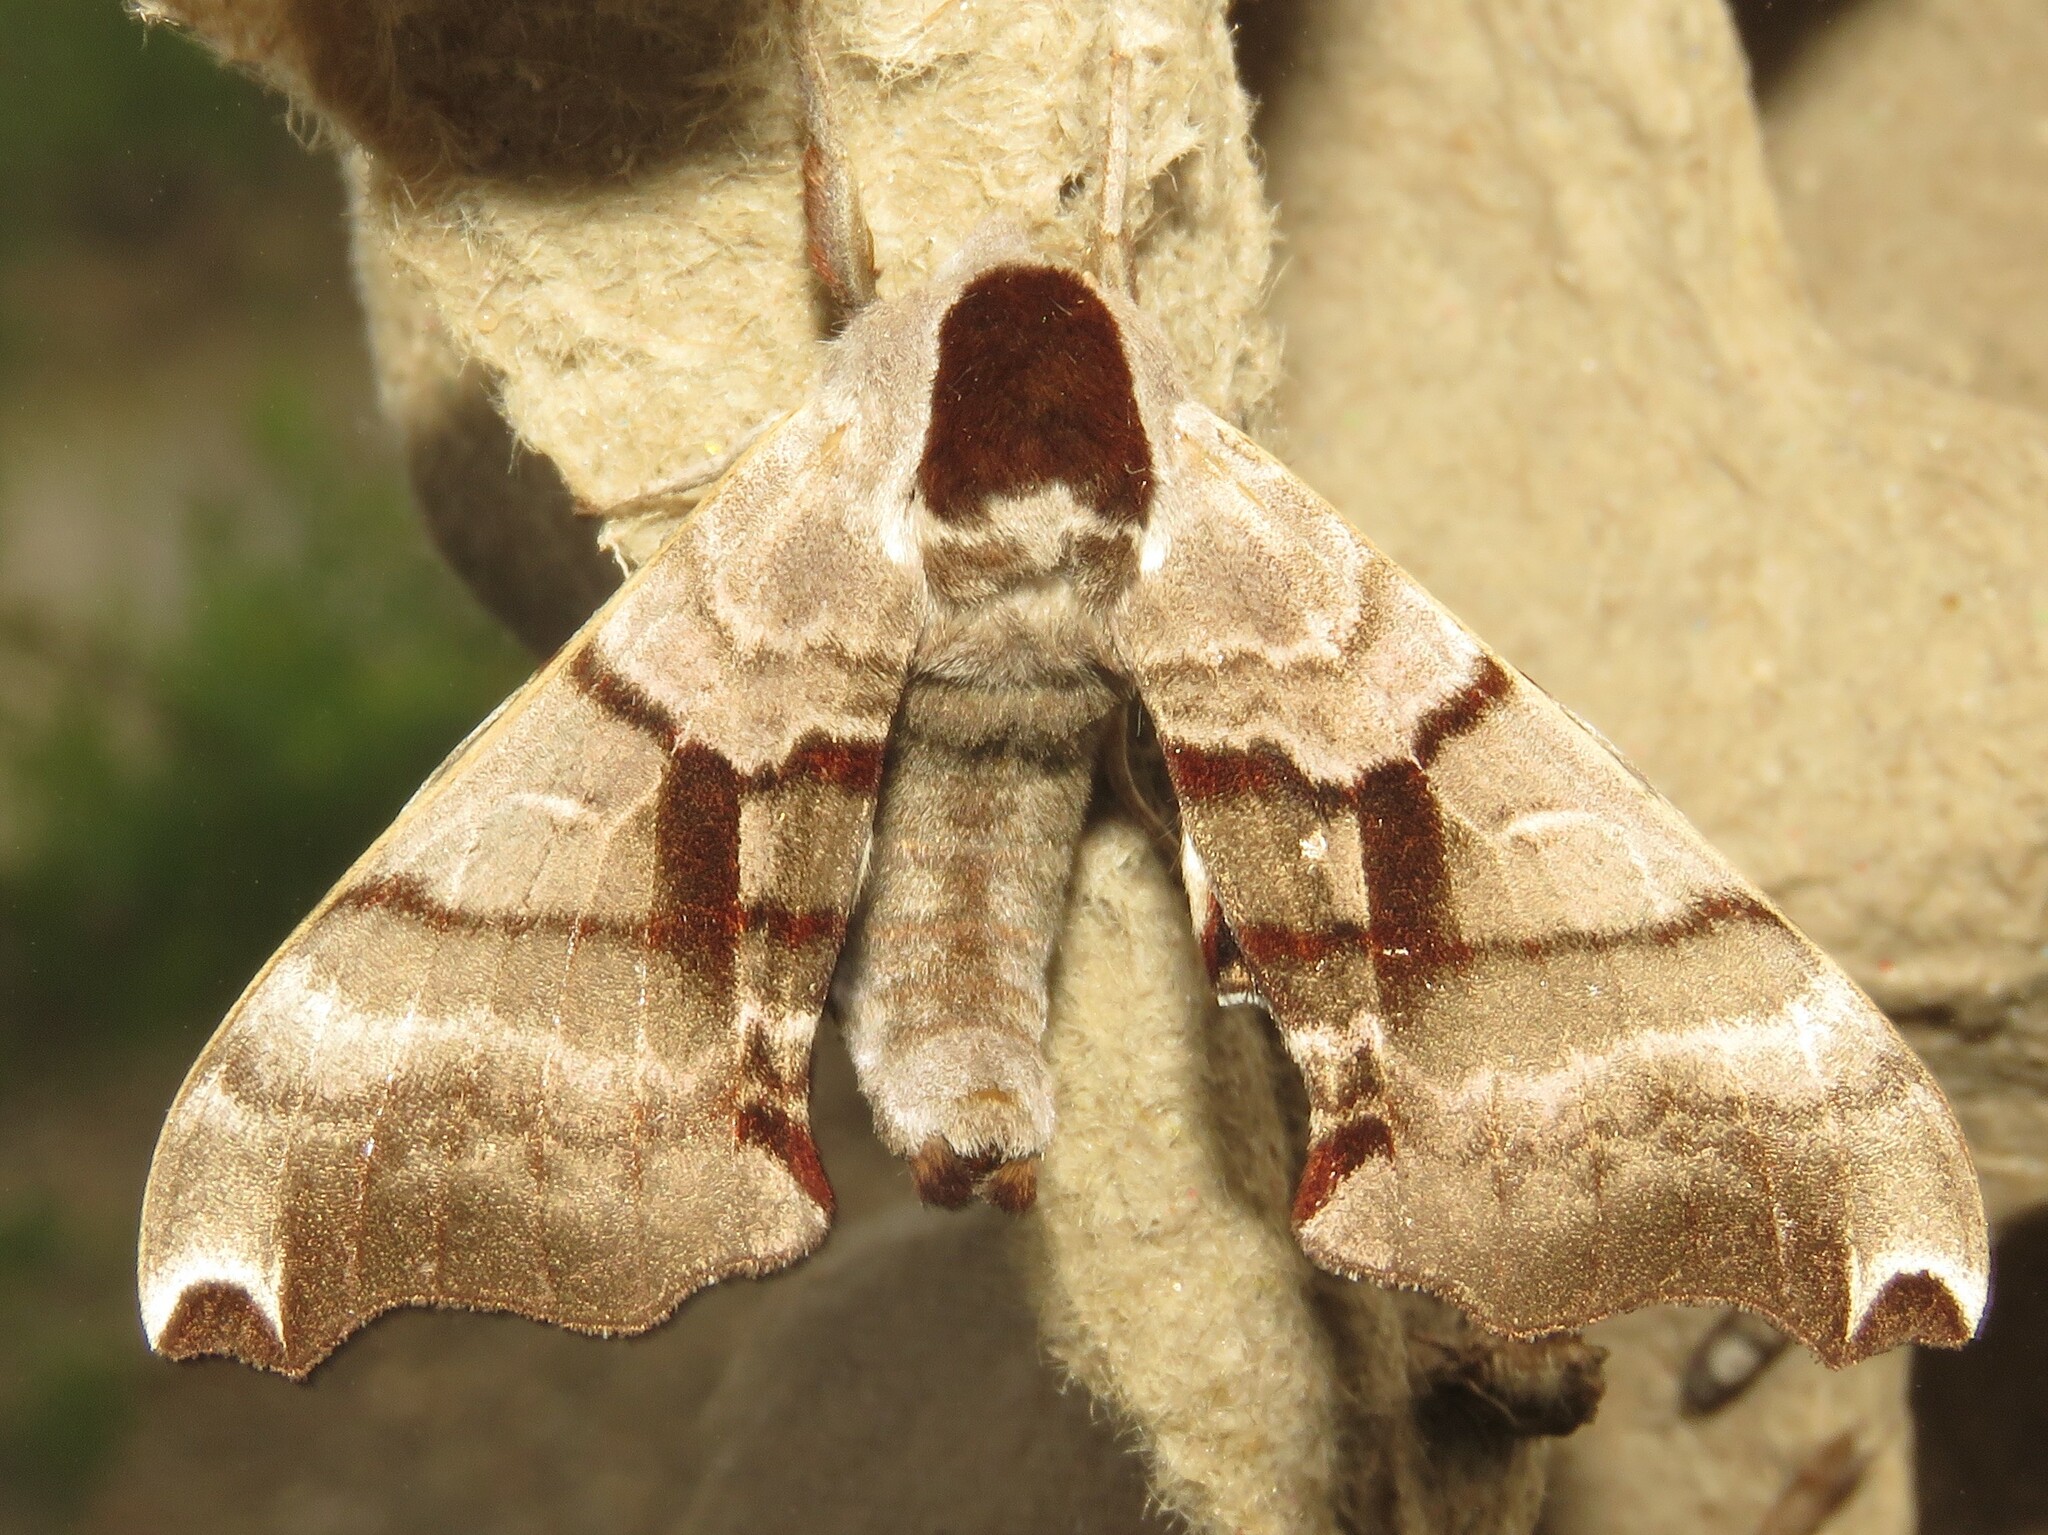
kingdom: Animalia
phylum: Arthropoda
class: Insecta
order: Lepidoptera
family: Sphingidae
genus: Smerinthus
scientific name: Smerinthus jamaicensis
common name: Twin spotted sphinx
